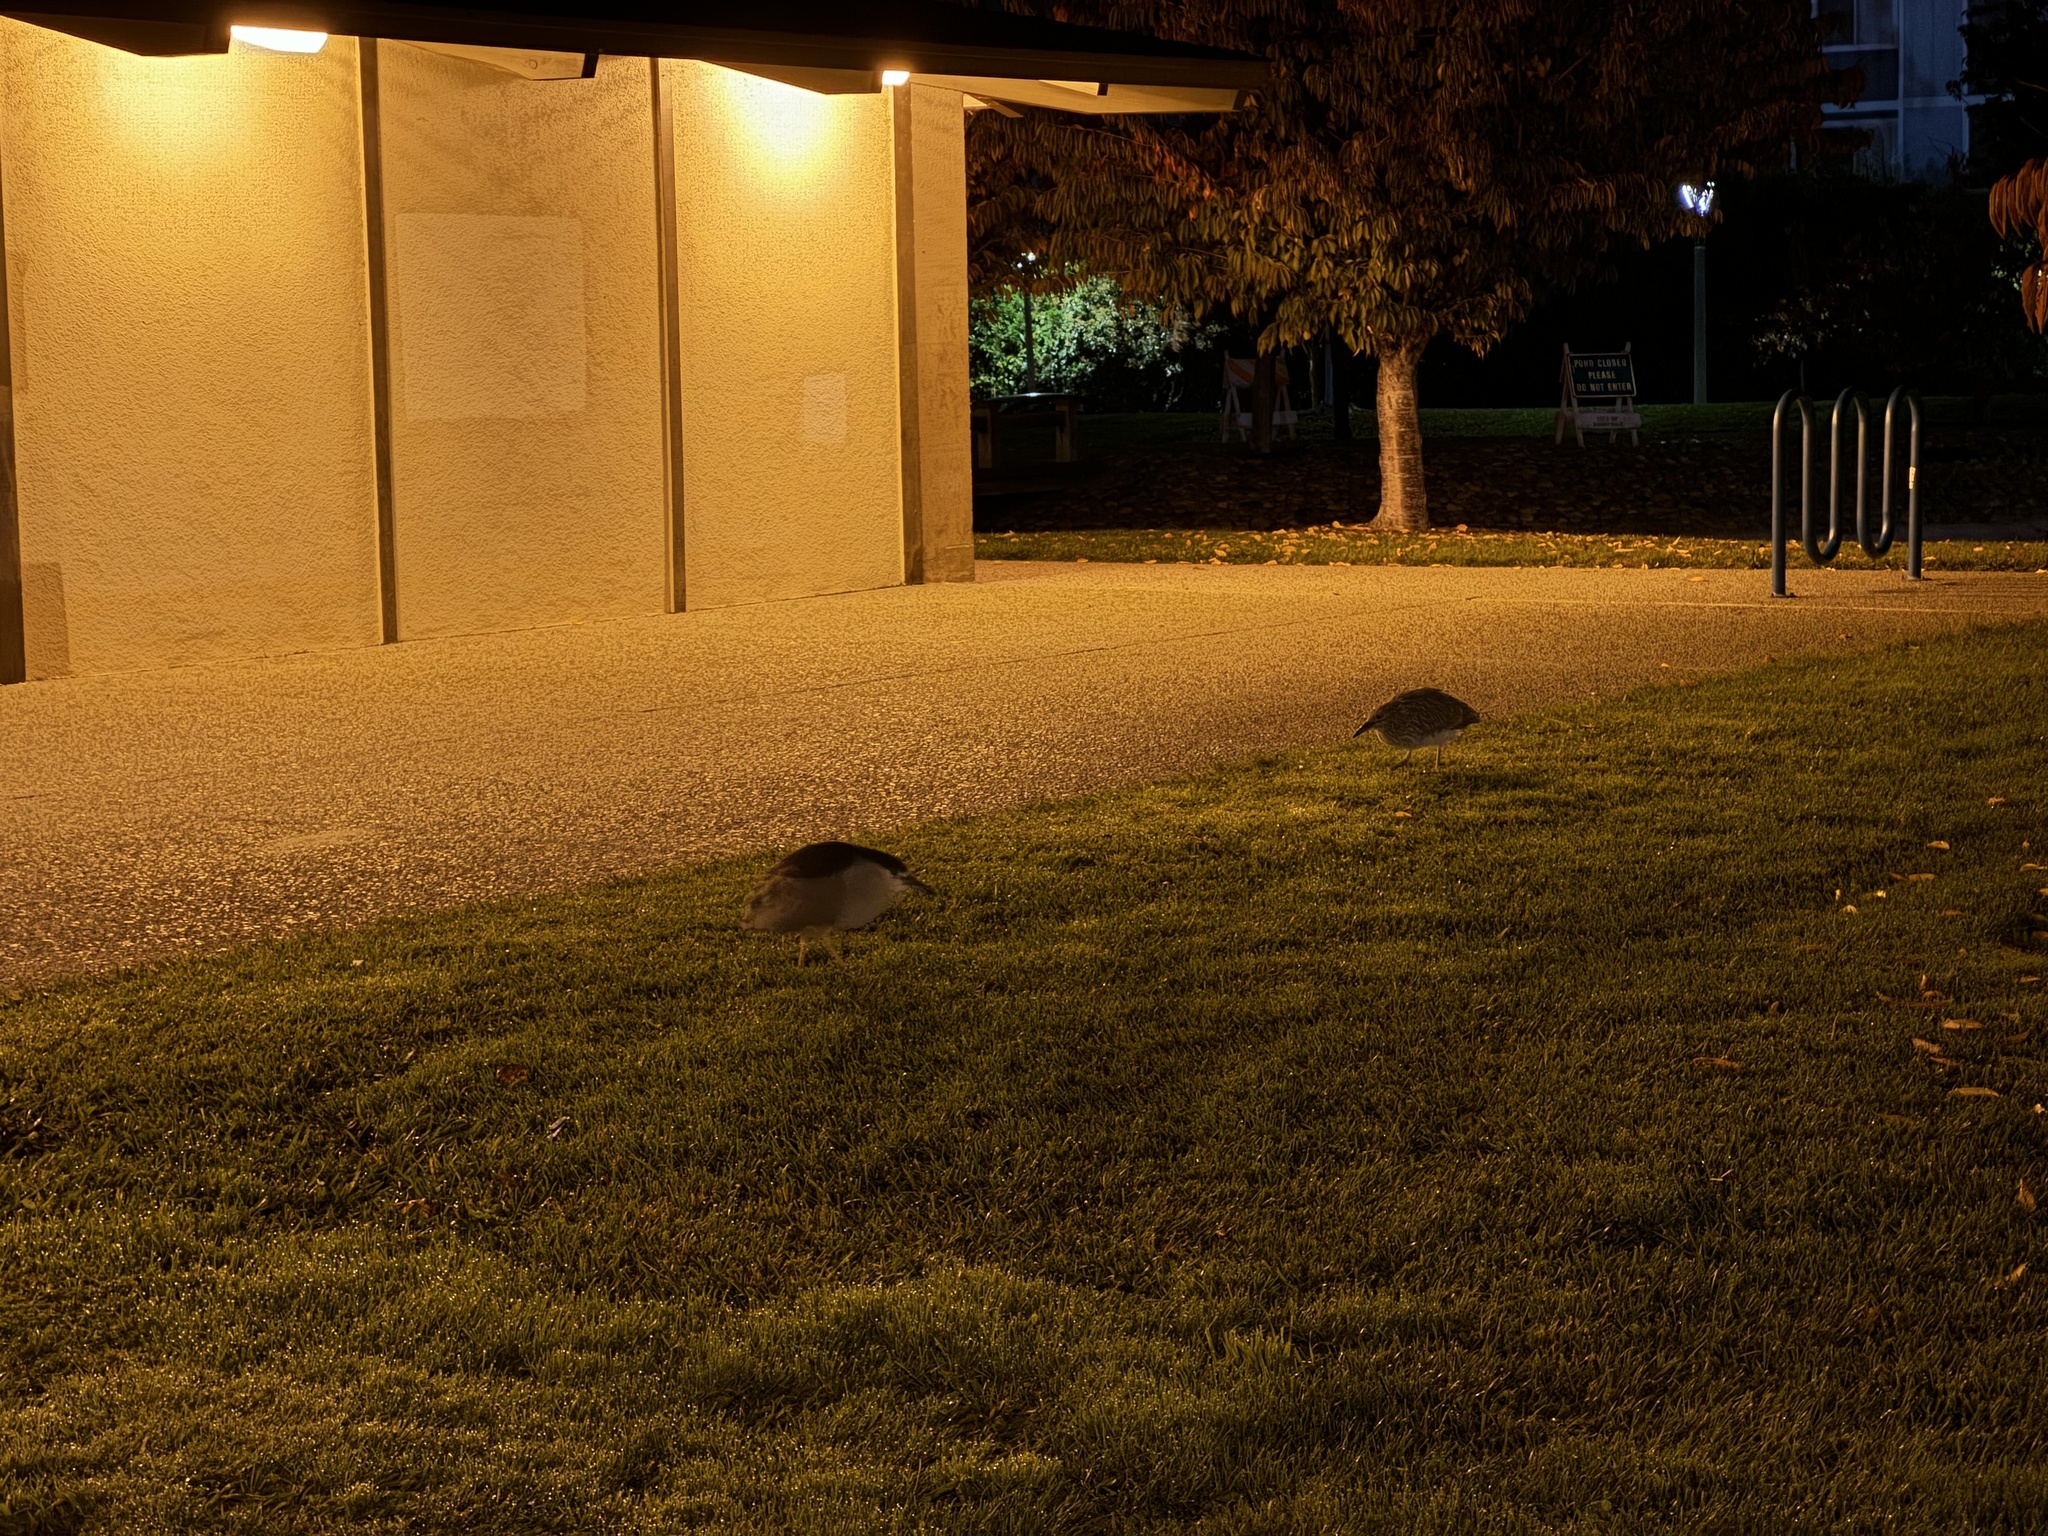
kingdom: Animalia
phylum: Chordata
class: Aves
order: Pelecaniformes
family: Ardeidae
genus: Nycticorax
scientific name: Nycticorax nycticorax
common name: Black-crowned night heron
